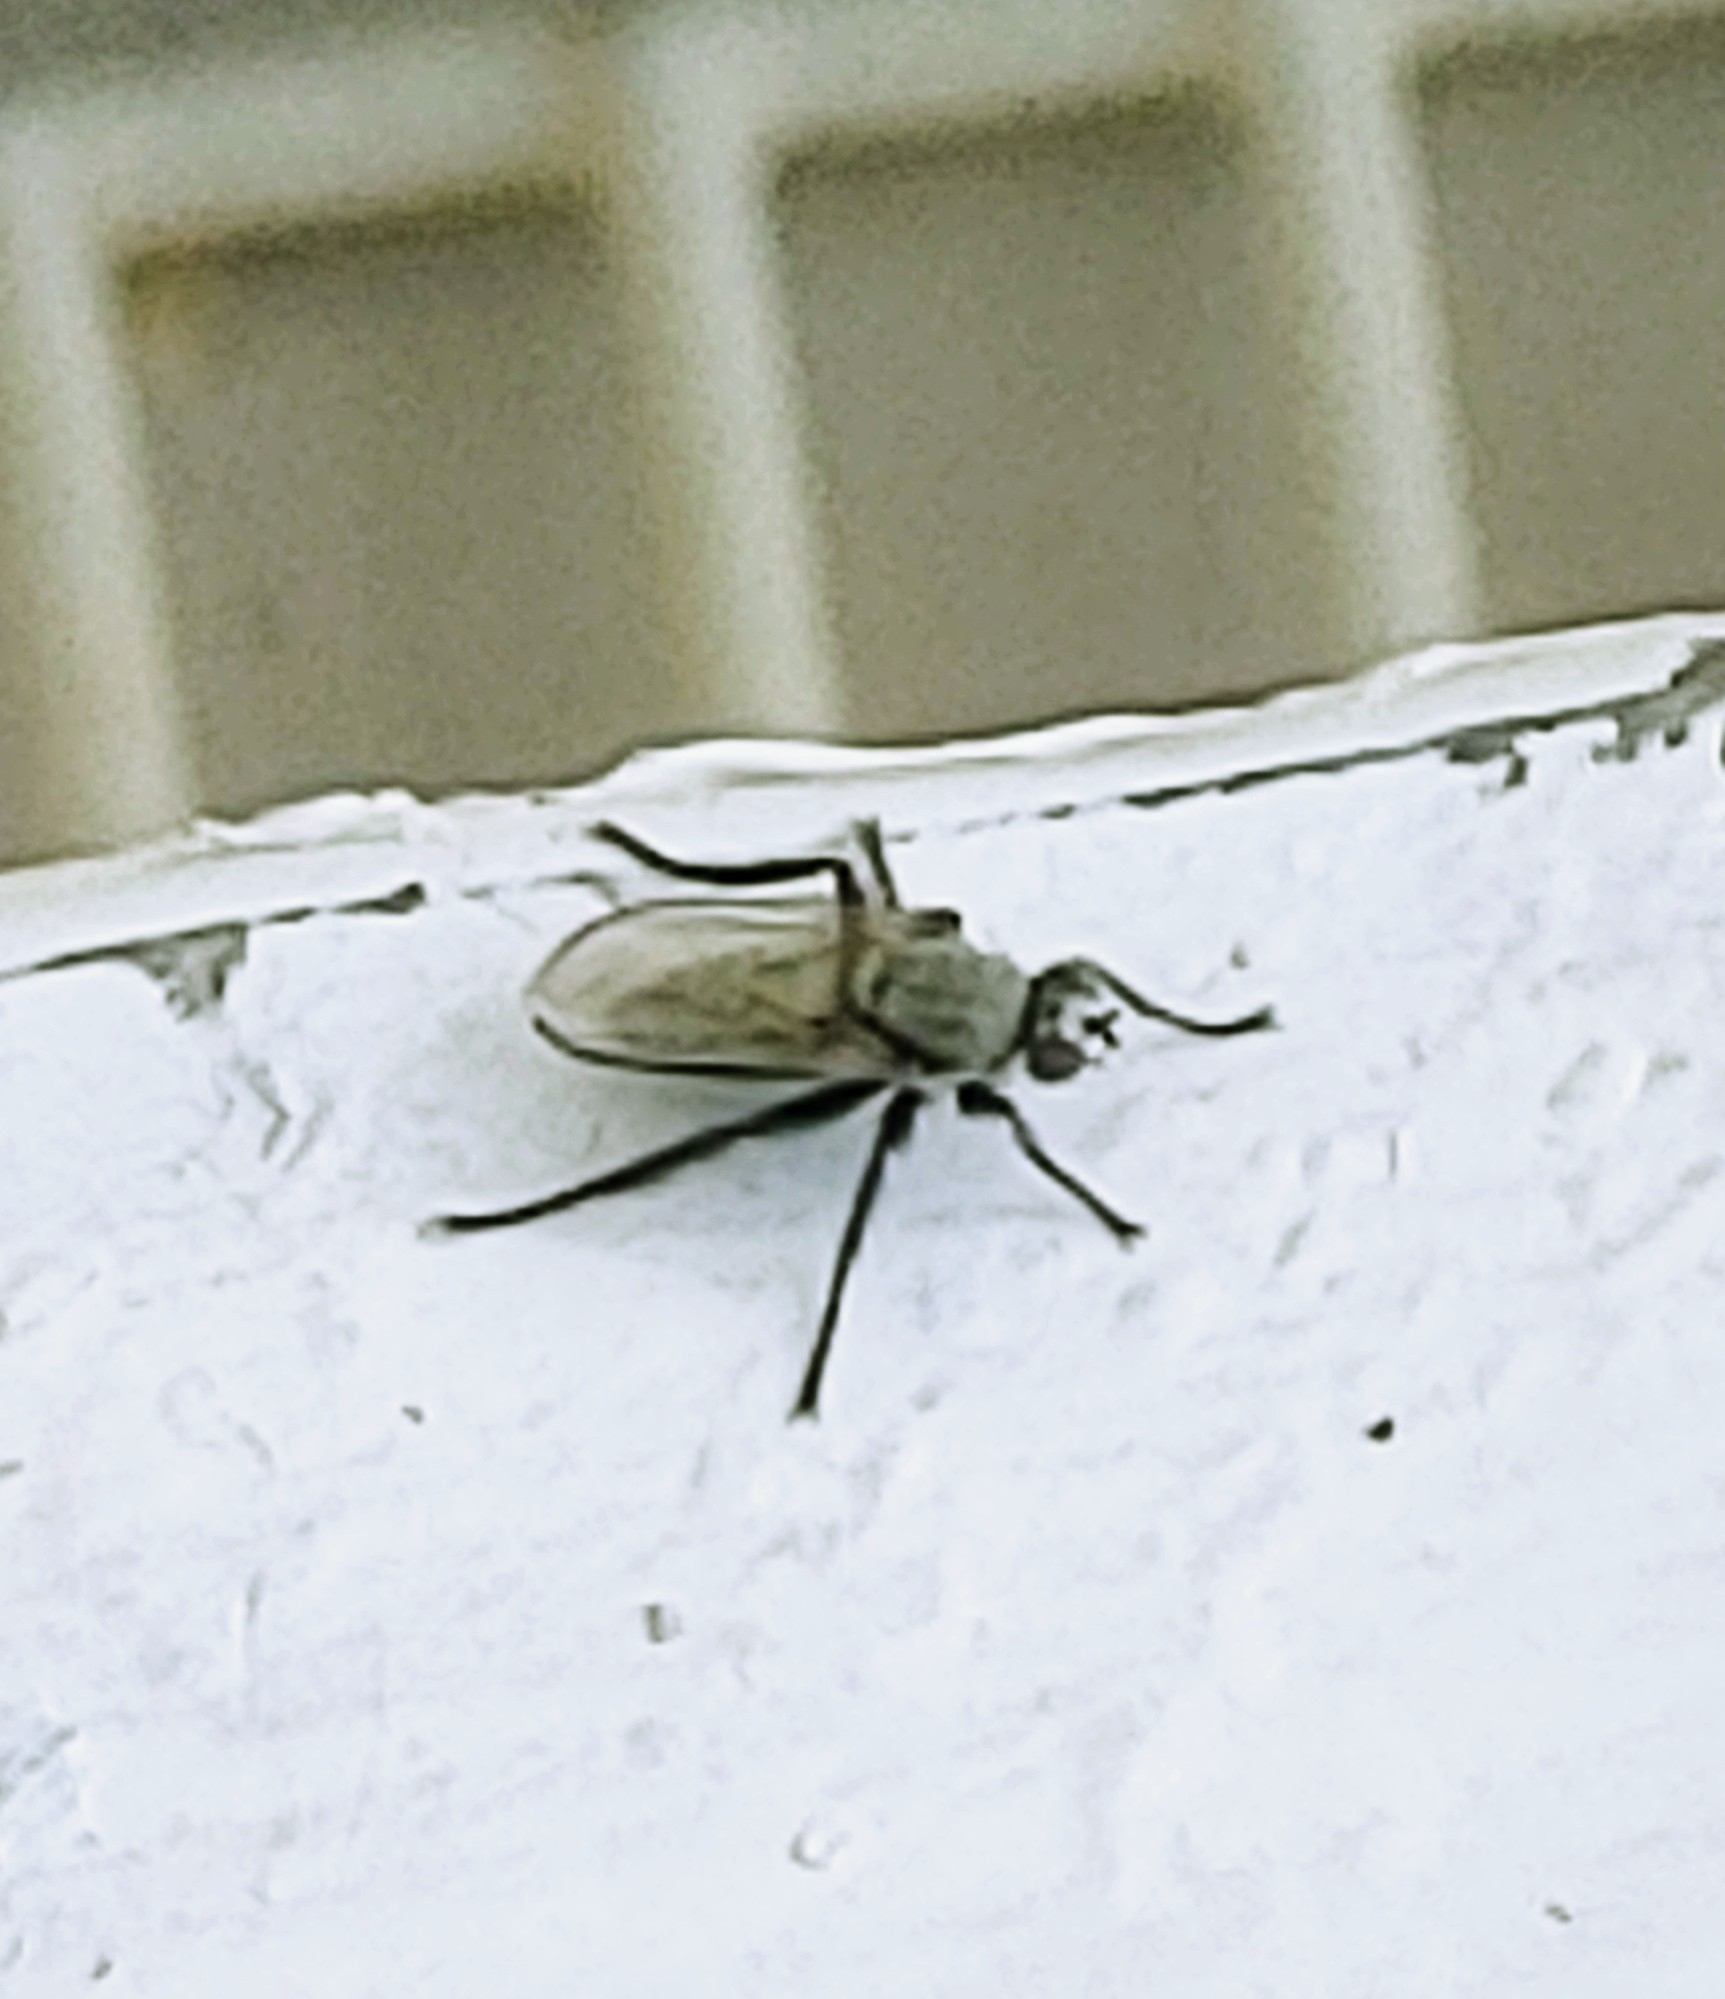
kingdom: Animalia
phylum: Arthropoda
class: Insecta
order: Diptera
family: Dolichopodidae
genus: Asyndetus
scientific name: Asyndetus interruptus
